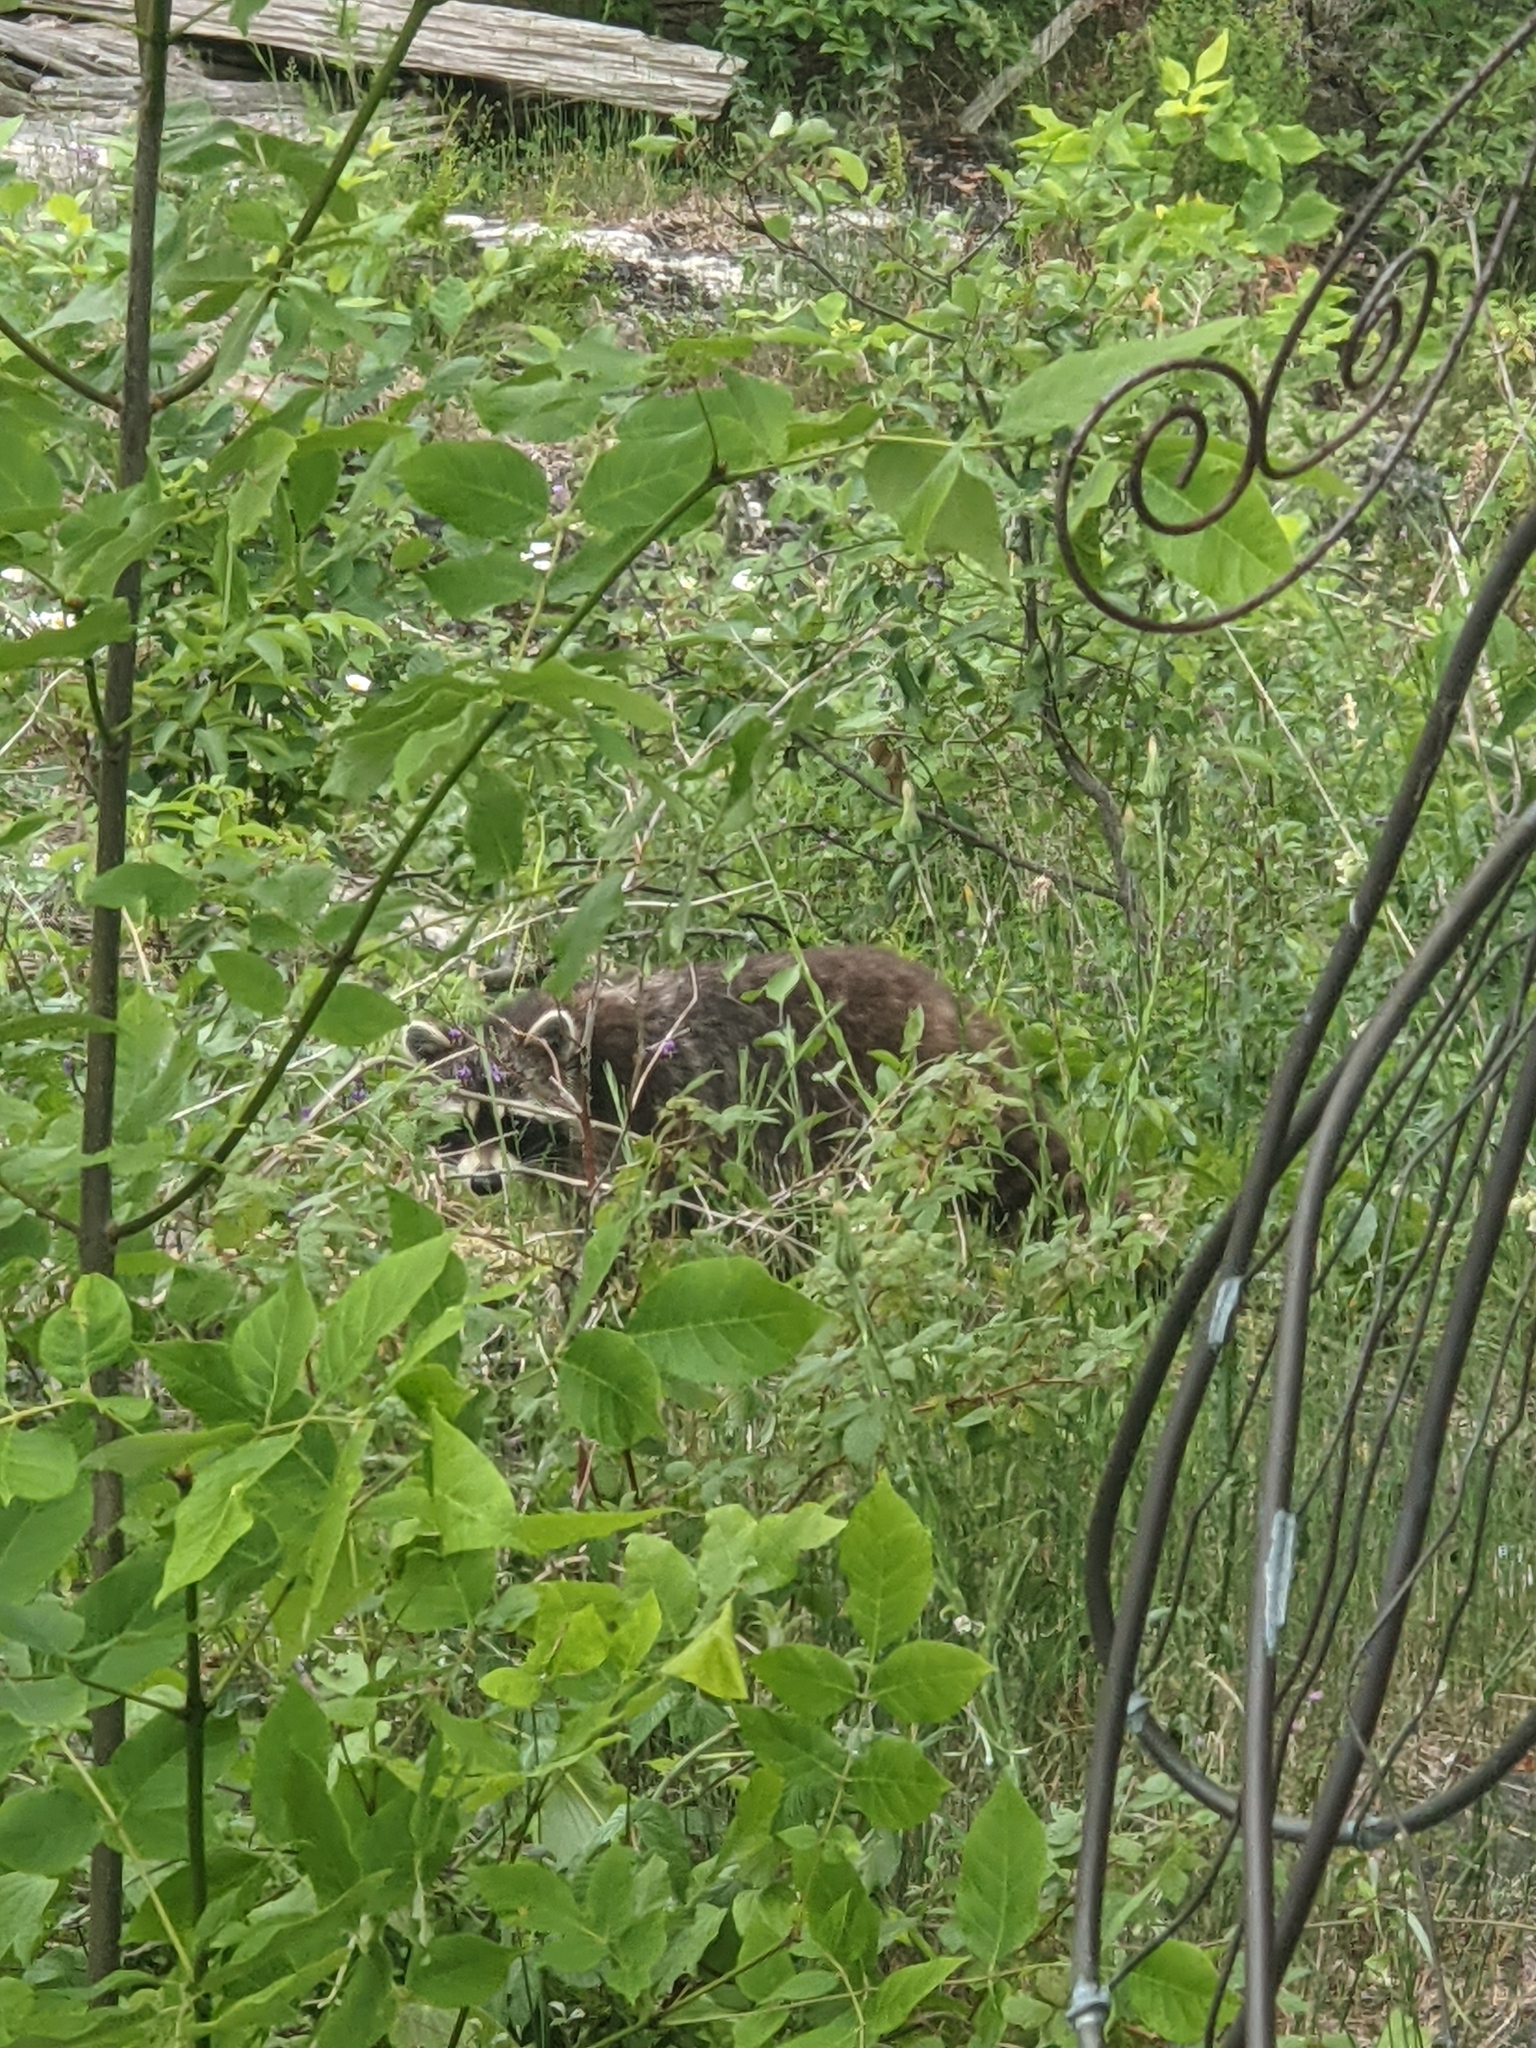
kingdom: Animalia
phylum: Chordata
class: Mammalia
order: Carnivora
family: Procyonidae
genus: Procyon
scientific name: Procyon lotor
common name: Raccoon
